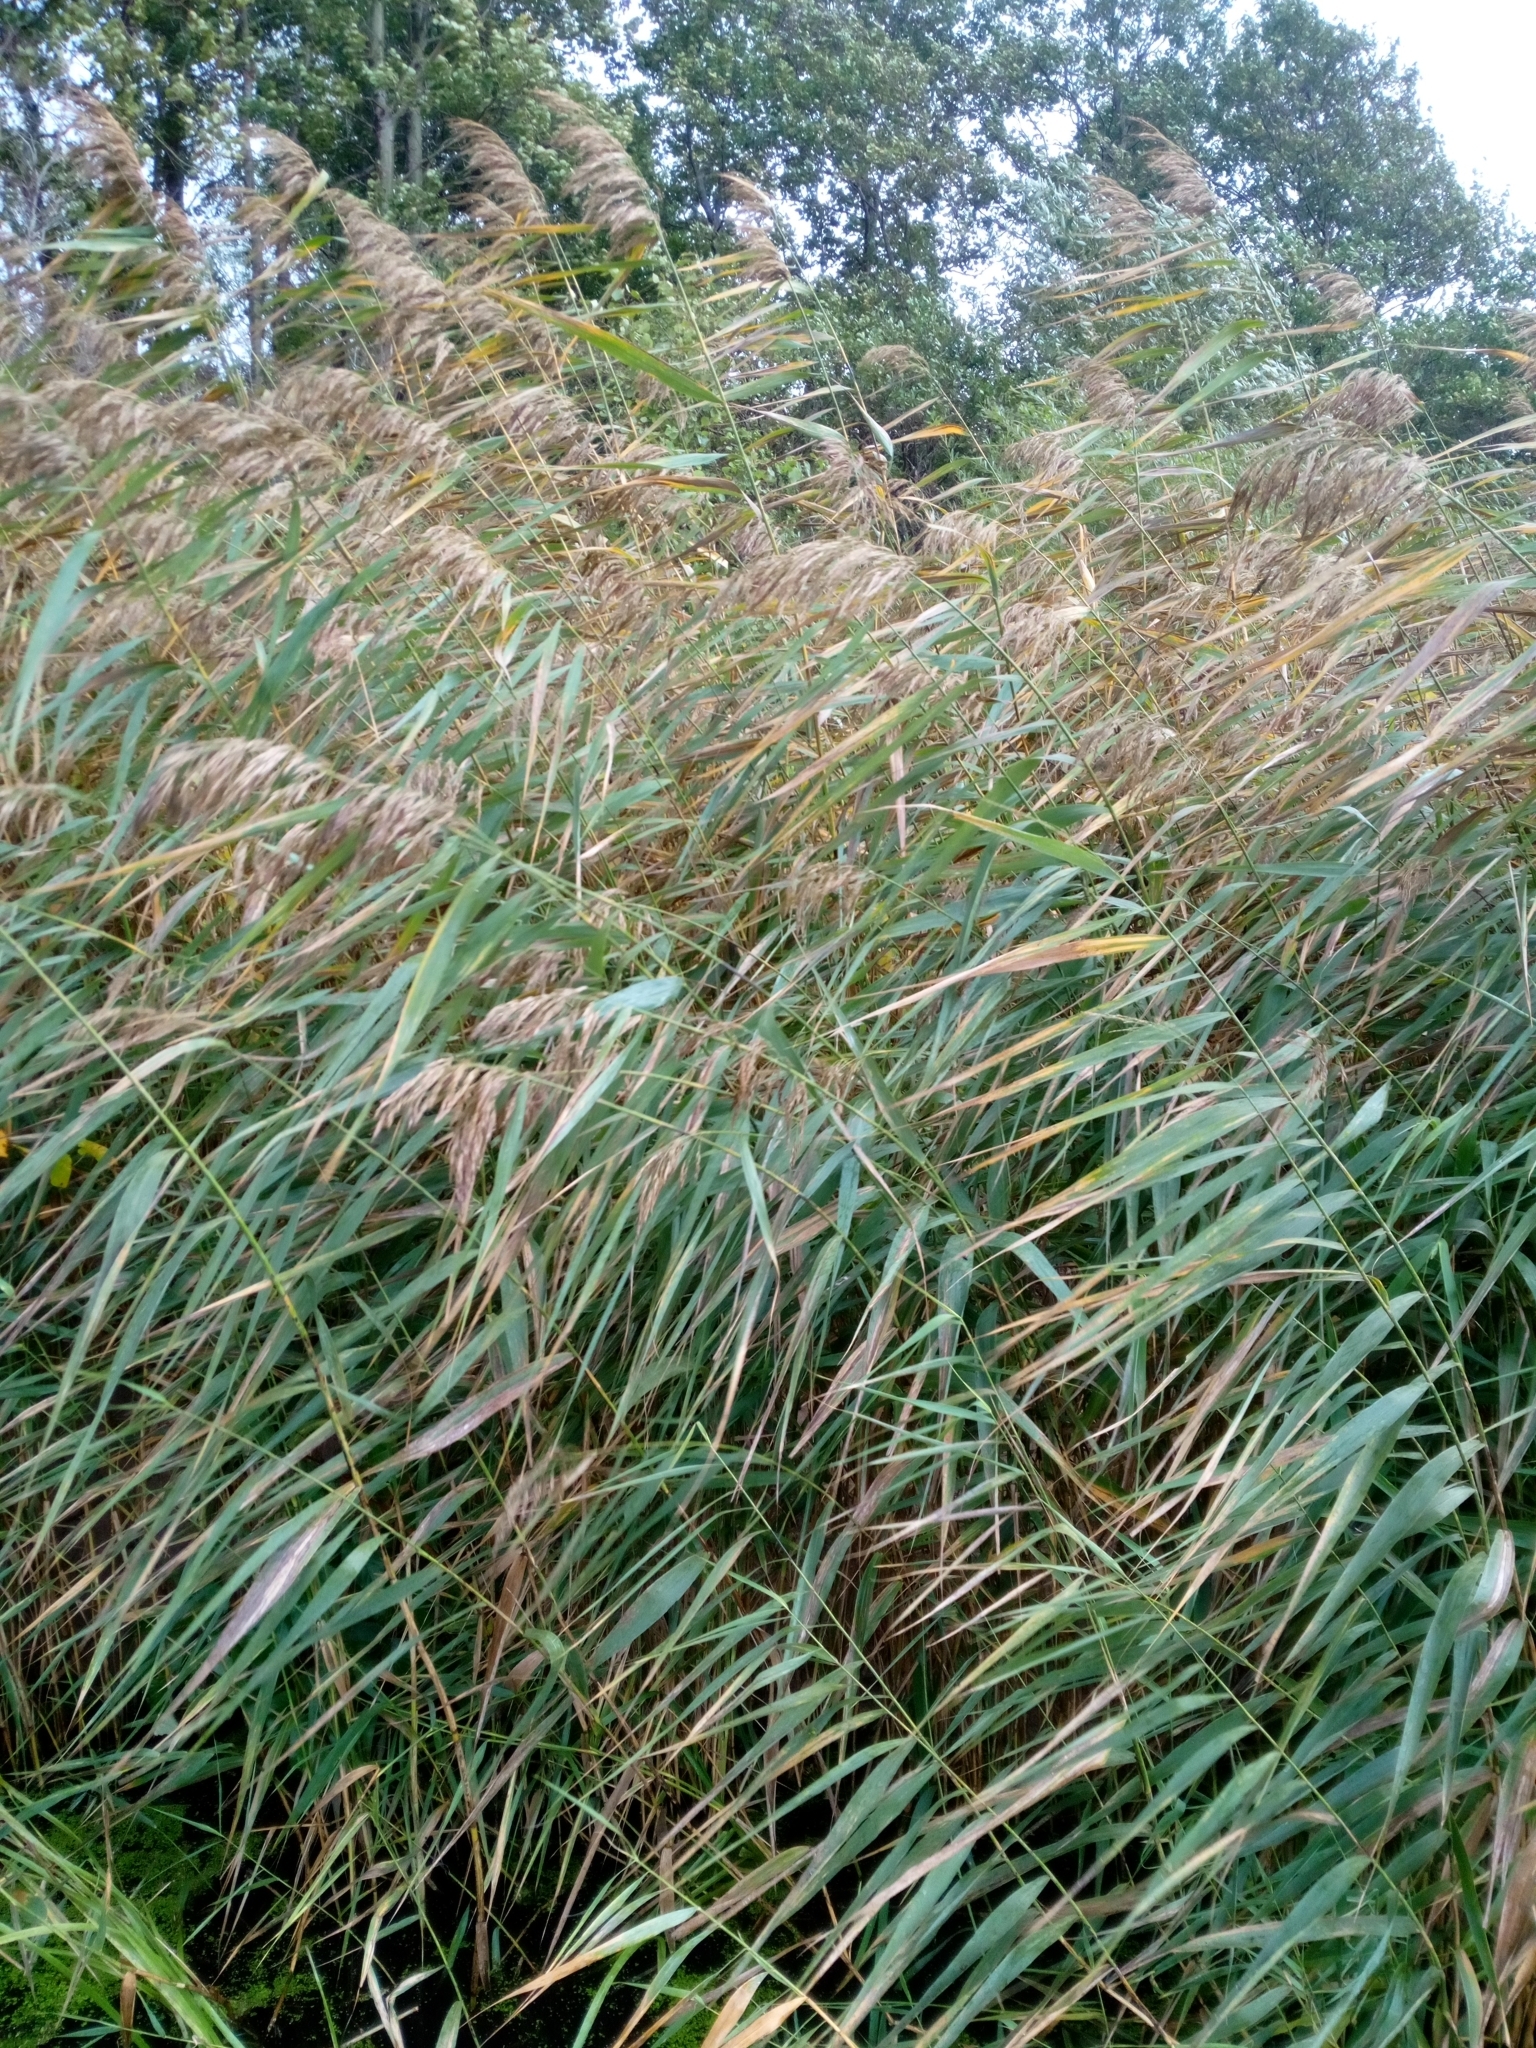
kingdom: Plantae
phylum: Tracheophyta
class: Liliopsida
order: Poales
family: Poaceae
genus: Phragmites
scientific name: Phragmites australis
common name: Common reed
